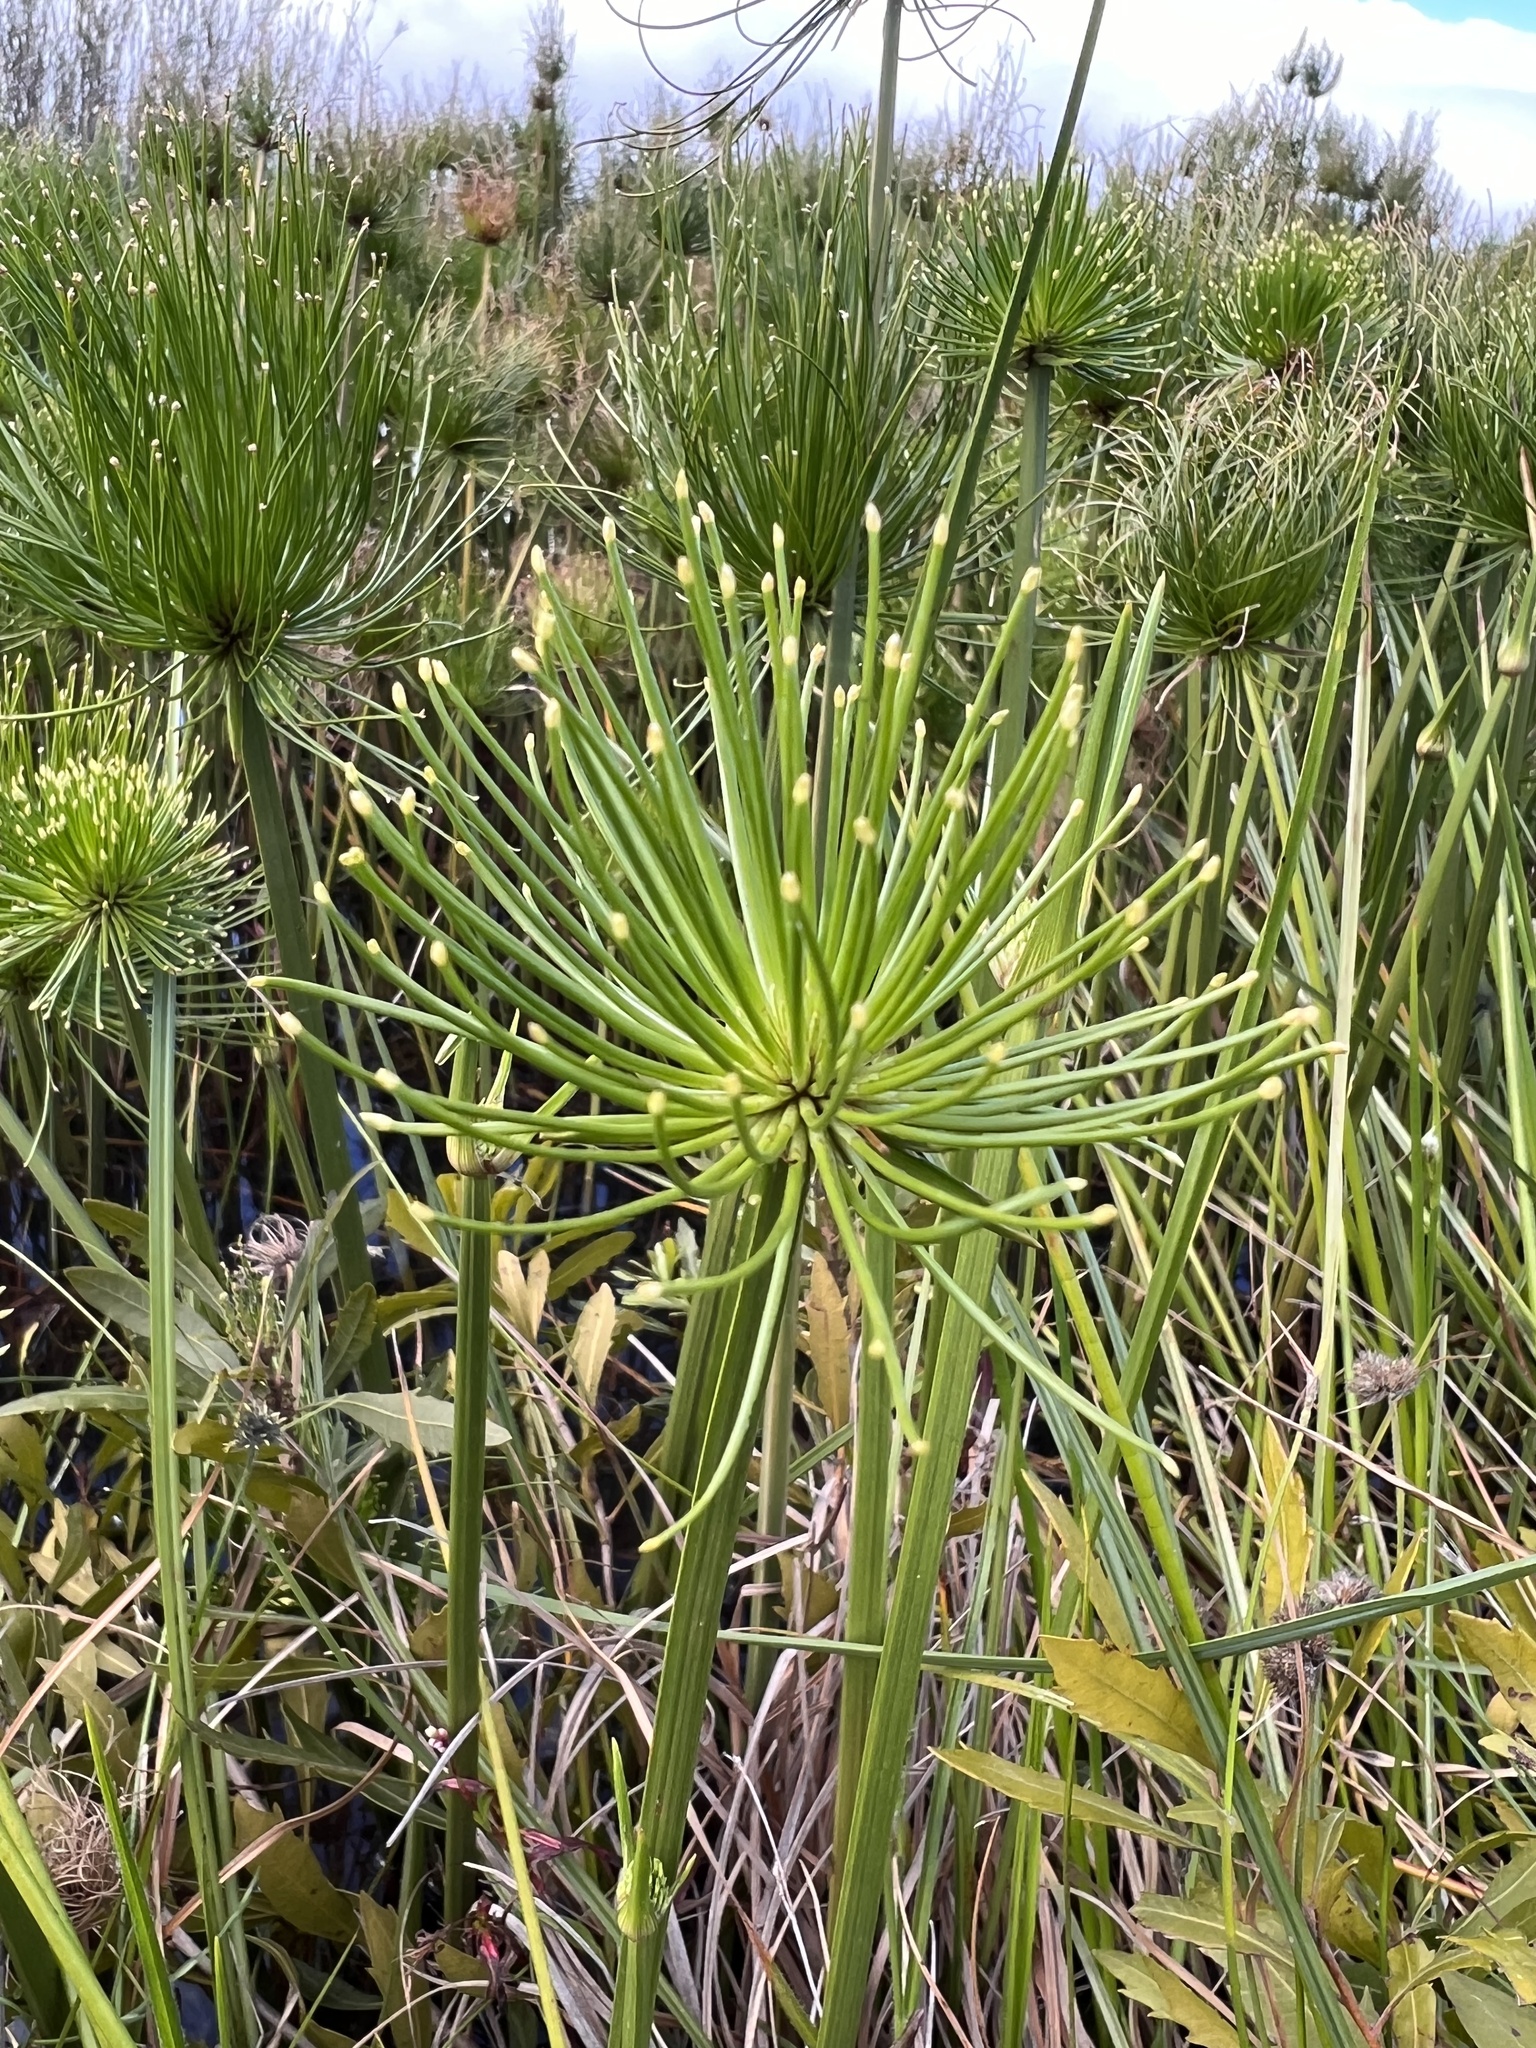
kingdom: Plantae
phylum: Tracheophyta
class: Liliopsida
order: Poales
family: Cyperaceae
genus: Cyperus
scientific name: Cyperus prolifer
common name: Miniature flatsedge
